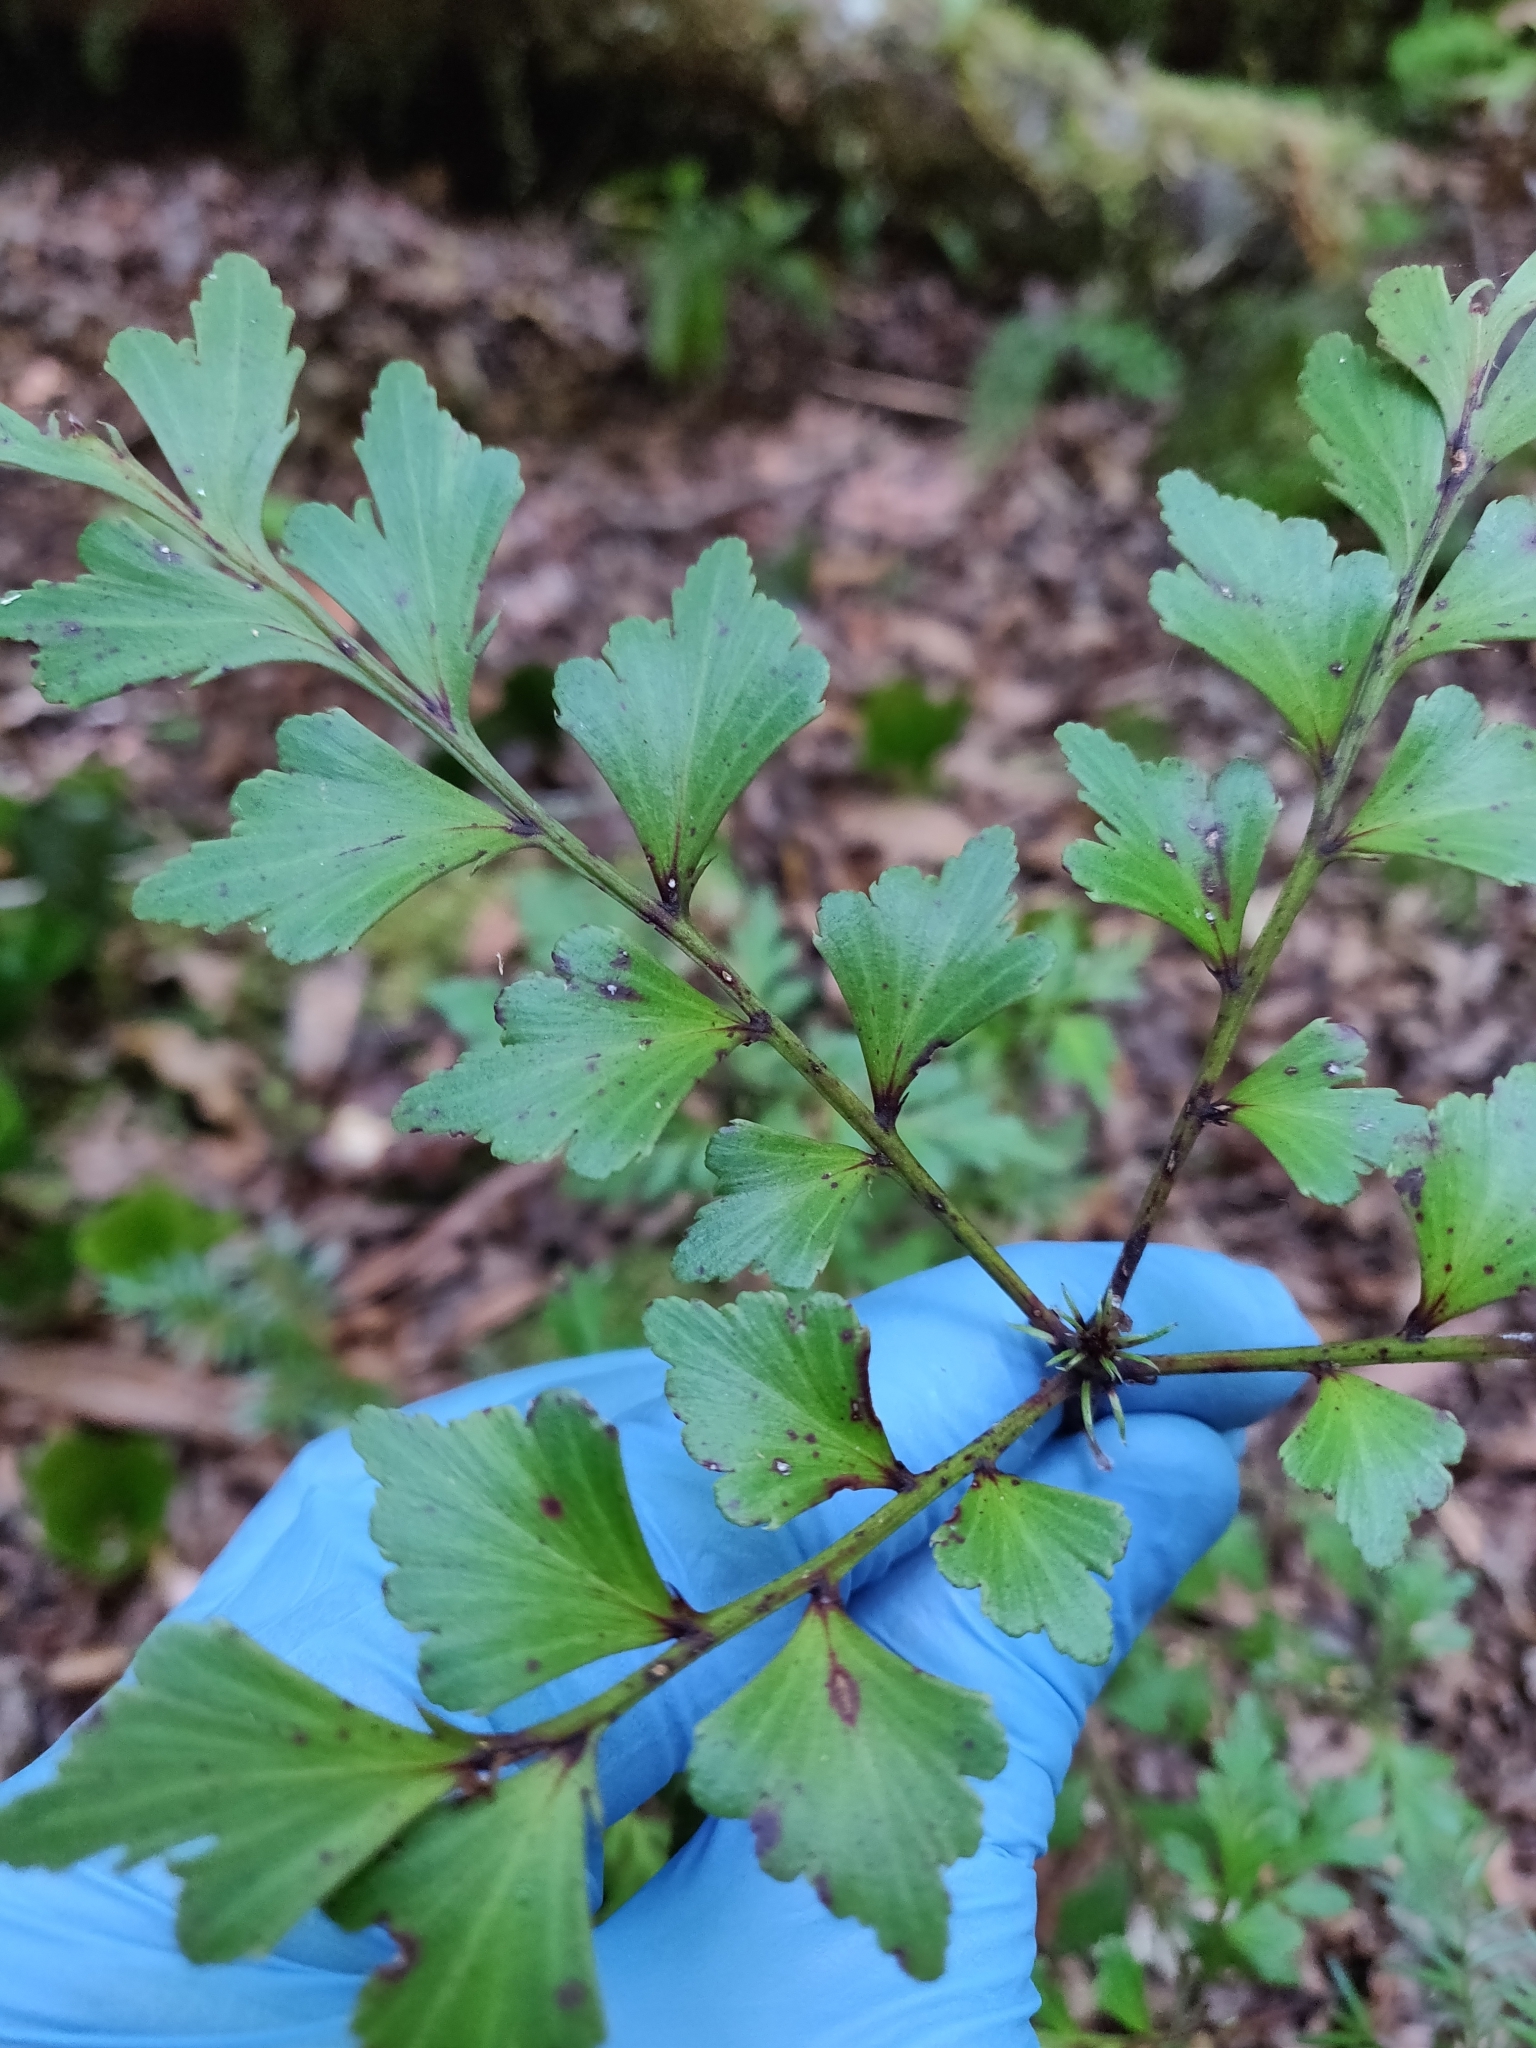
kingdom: Plantae
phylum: Tracheophyta
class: Pinopsida
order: Pinales
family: Phyllocladaceae
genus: Phyllocladus
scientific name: Phyllocladus trichomanoides
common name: Celery pine
